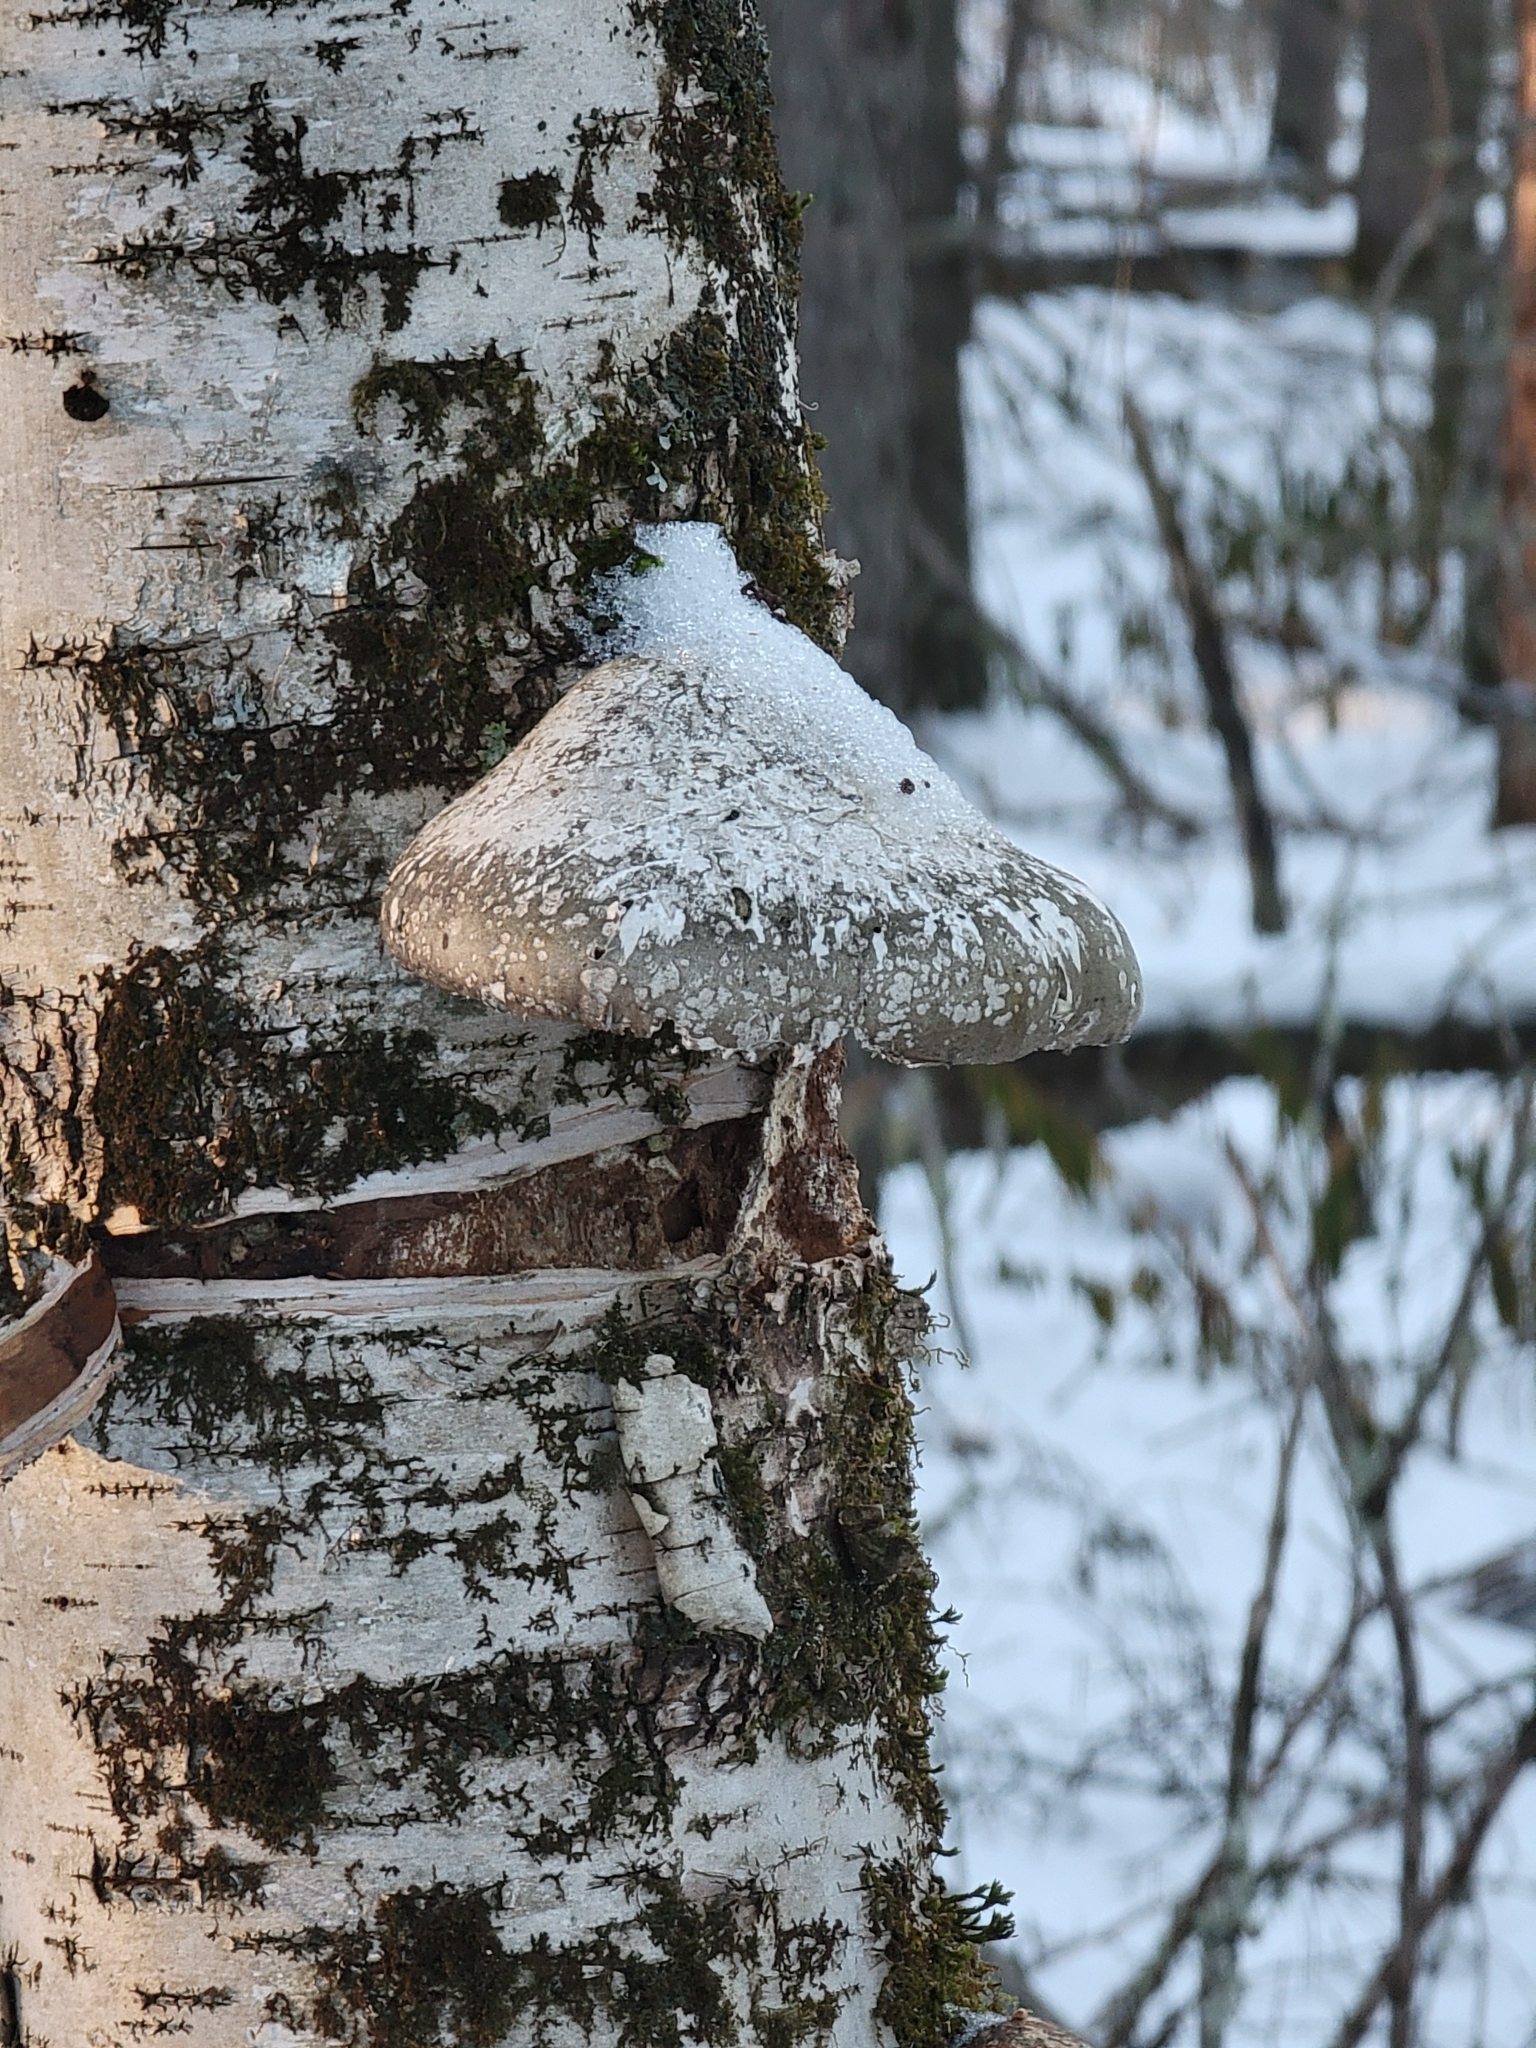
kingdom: Fungi
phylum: Basidiomycota
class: Agaricomycetes
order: Polyporales
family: Fomitopsidaceae
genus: Fomitopsis
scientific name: Fomitopsis betulina
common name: Birch polypore
